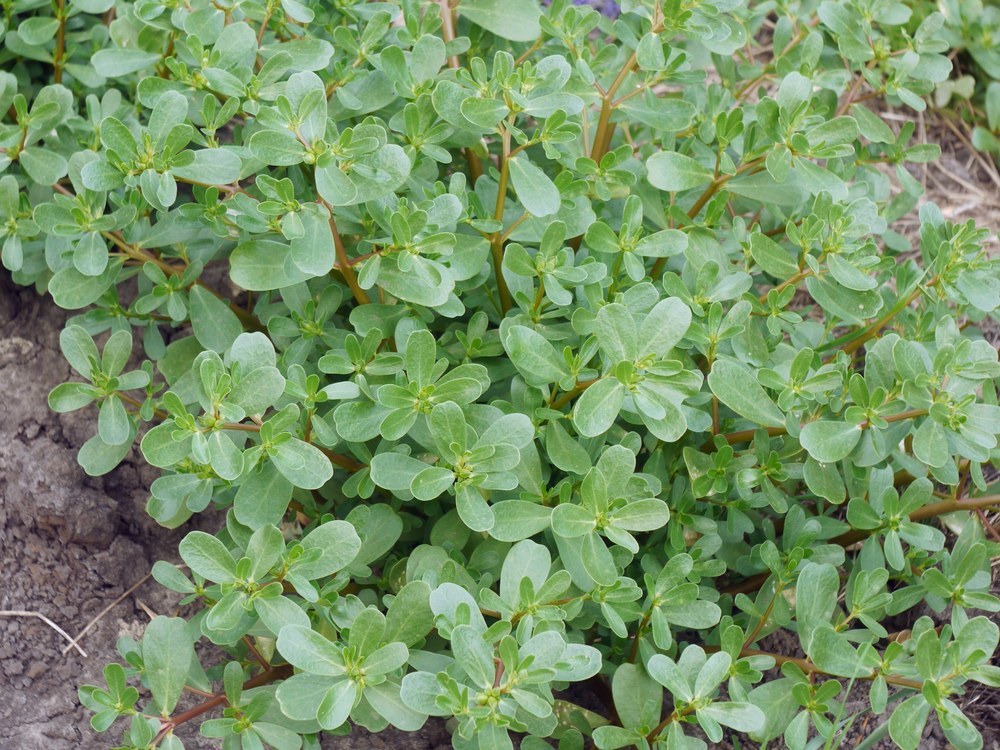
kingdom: Plantae
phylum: Tracheophyta
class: Magnoliopsida
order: Caryophyllales
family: Portulacaceae
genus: Portulaca
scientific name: Portulaca oleracea
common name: Common purslane
